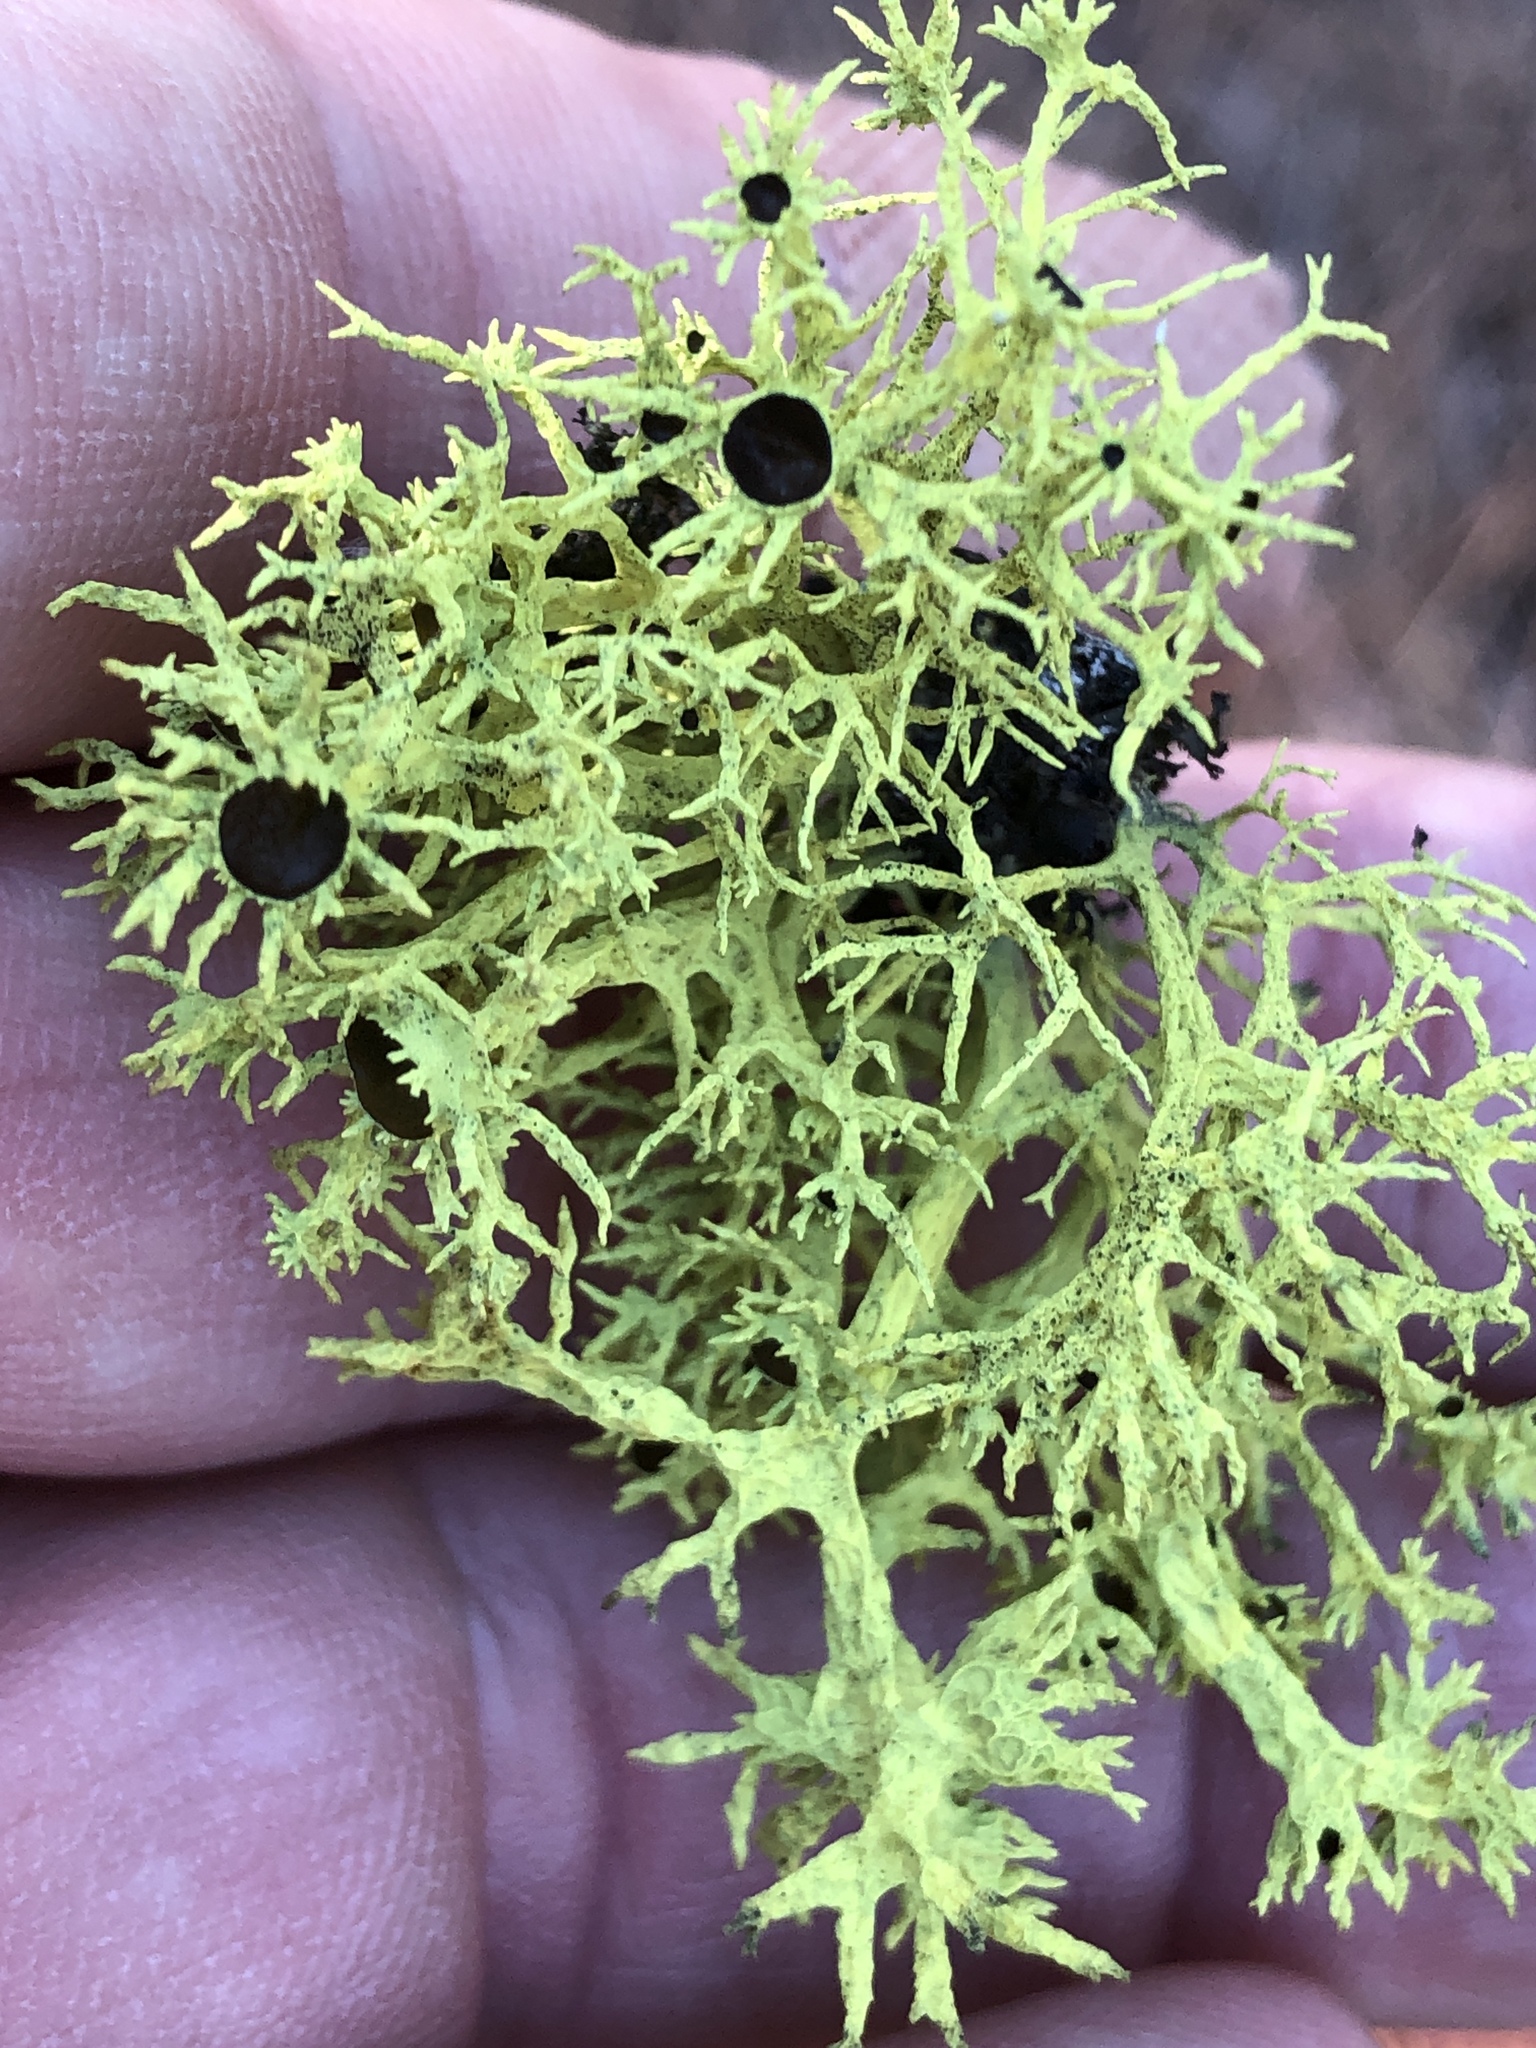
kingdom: Fungi
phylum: Ascomycota
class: Lecanoromycetes
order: Lecanorales
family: Parmeliaceae
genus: Letharia
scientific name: Letharia columbiana
